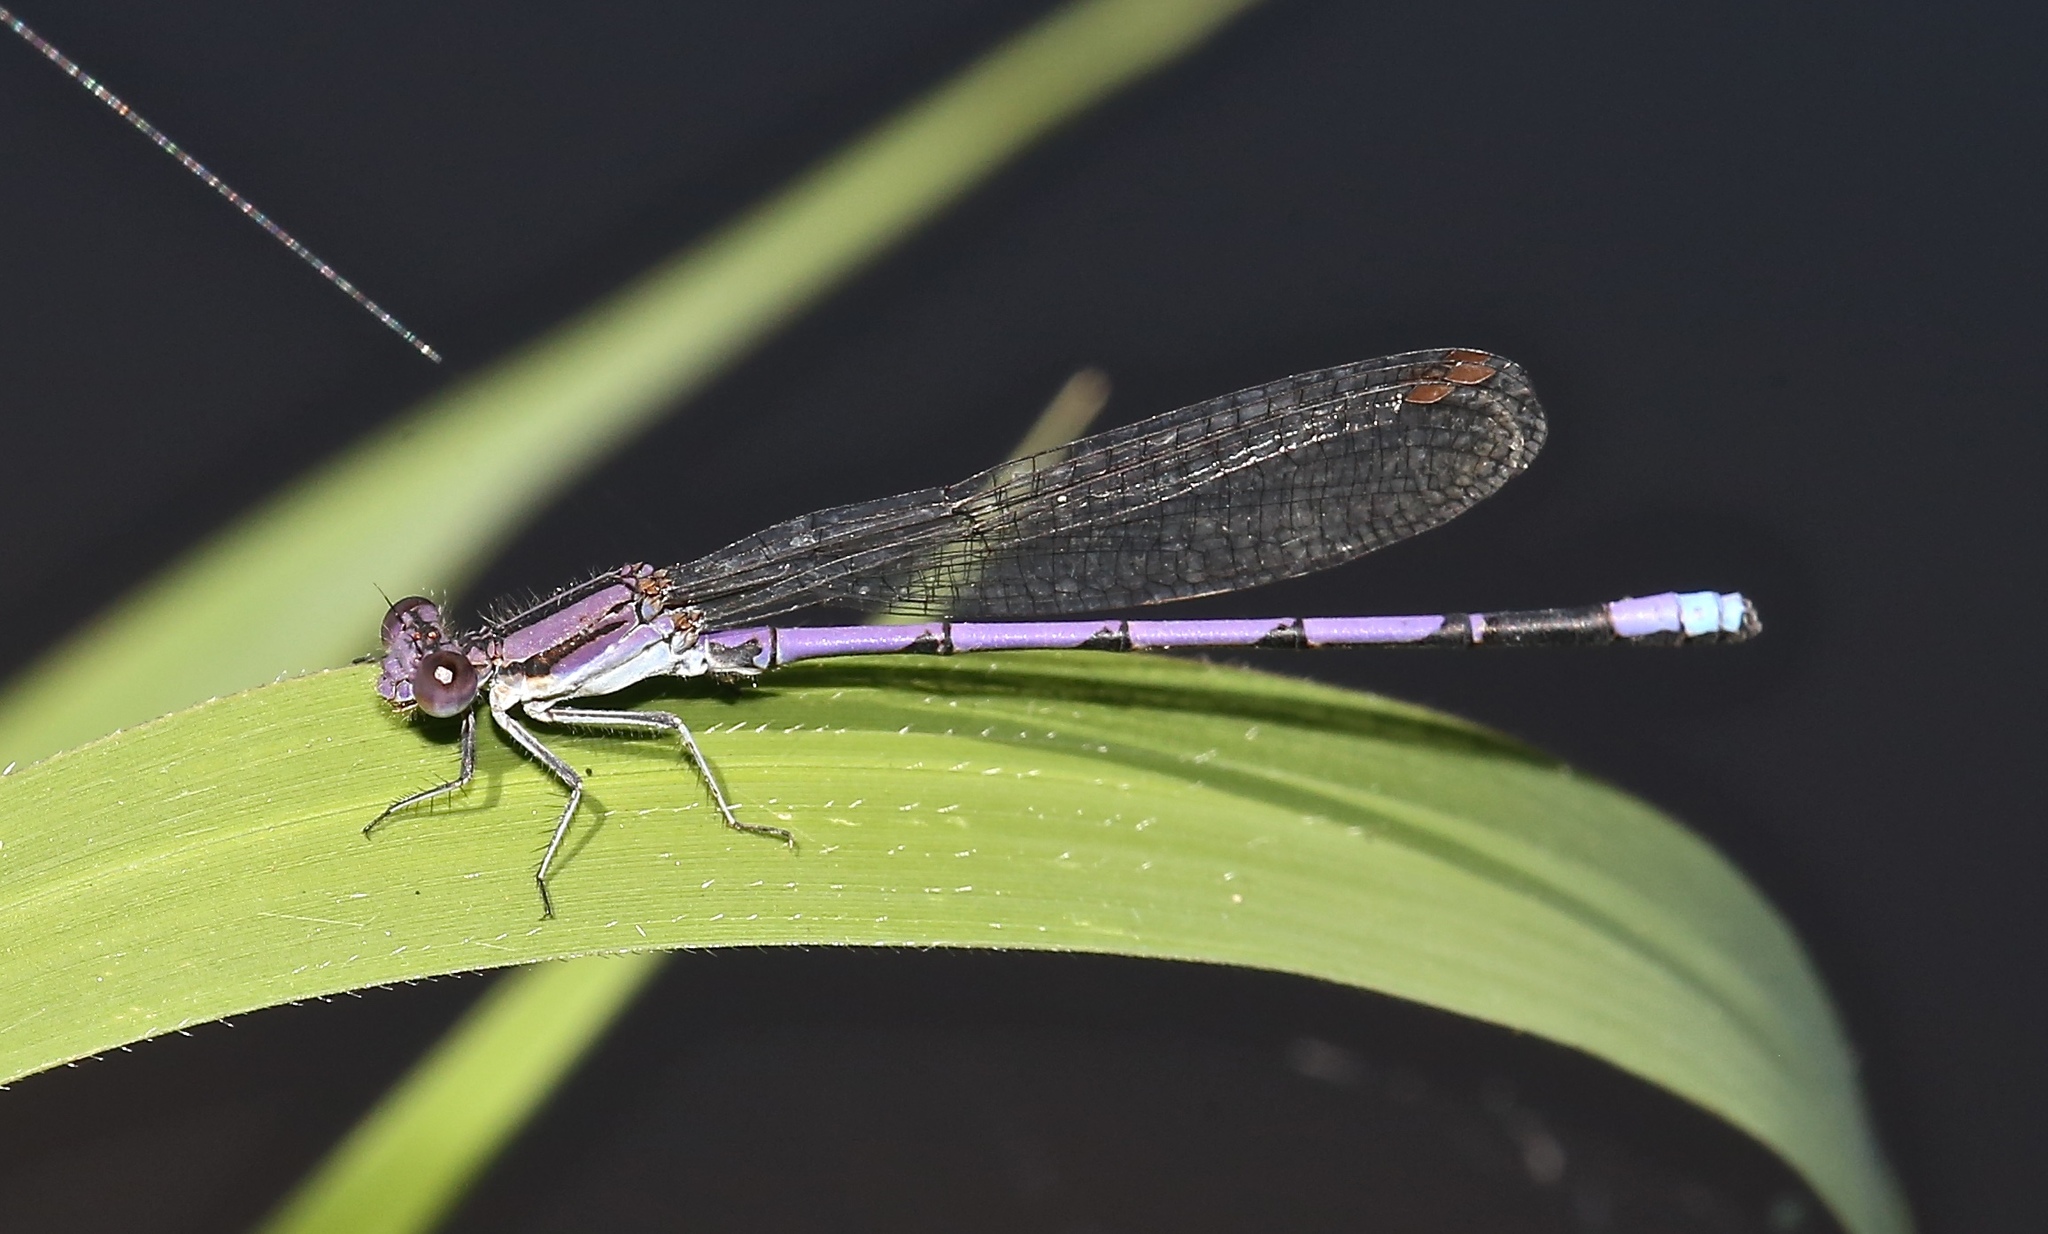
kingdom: Animalia
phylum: Arthropoda
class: Insecta
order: Odonata
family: Coenagrionidae
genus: Argia
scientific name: Argia fumipennis
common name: Variable dancer
